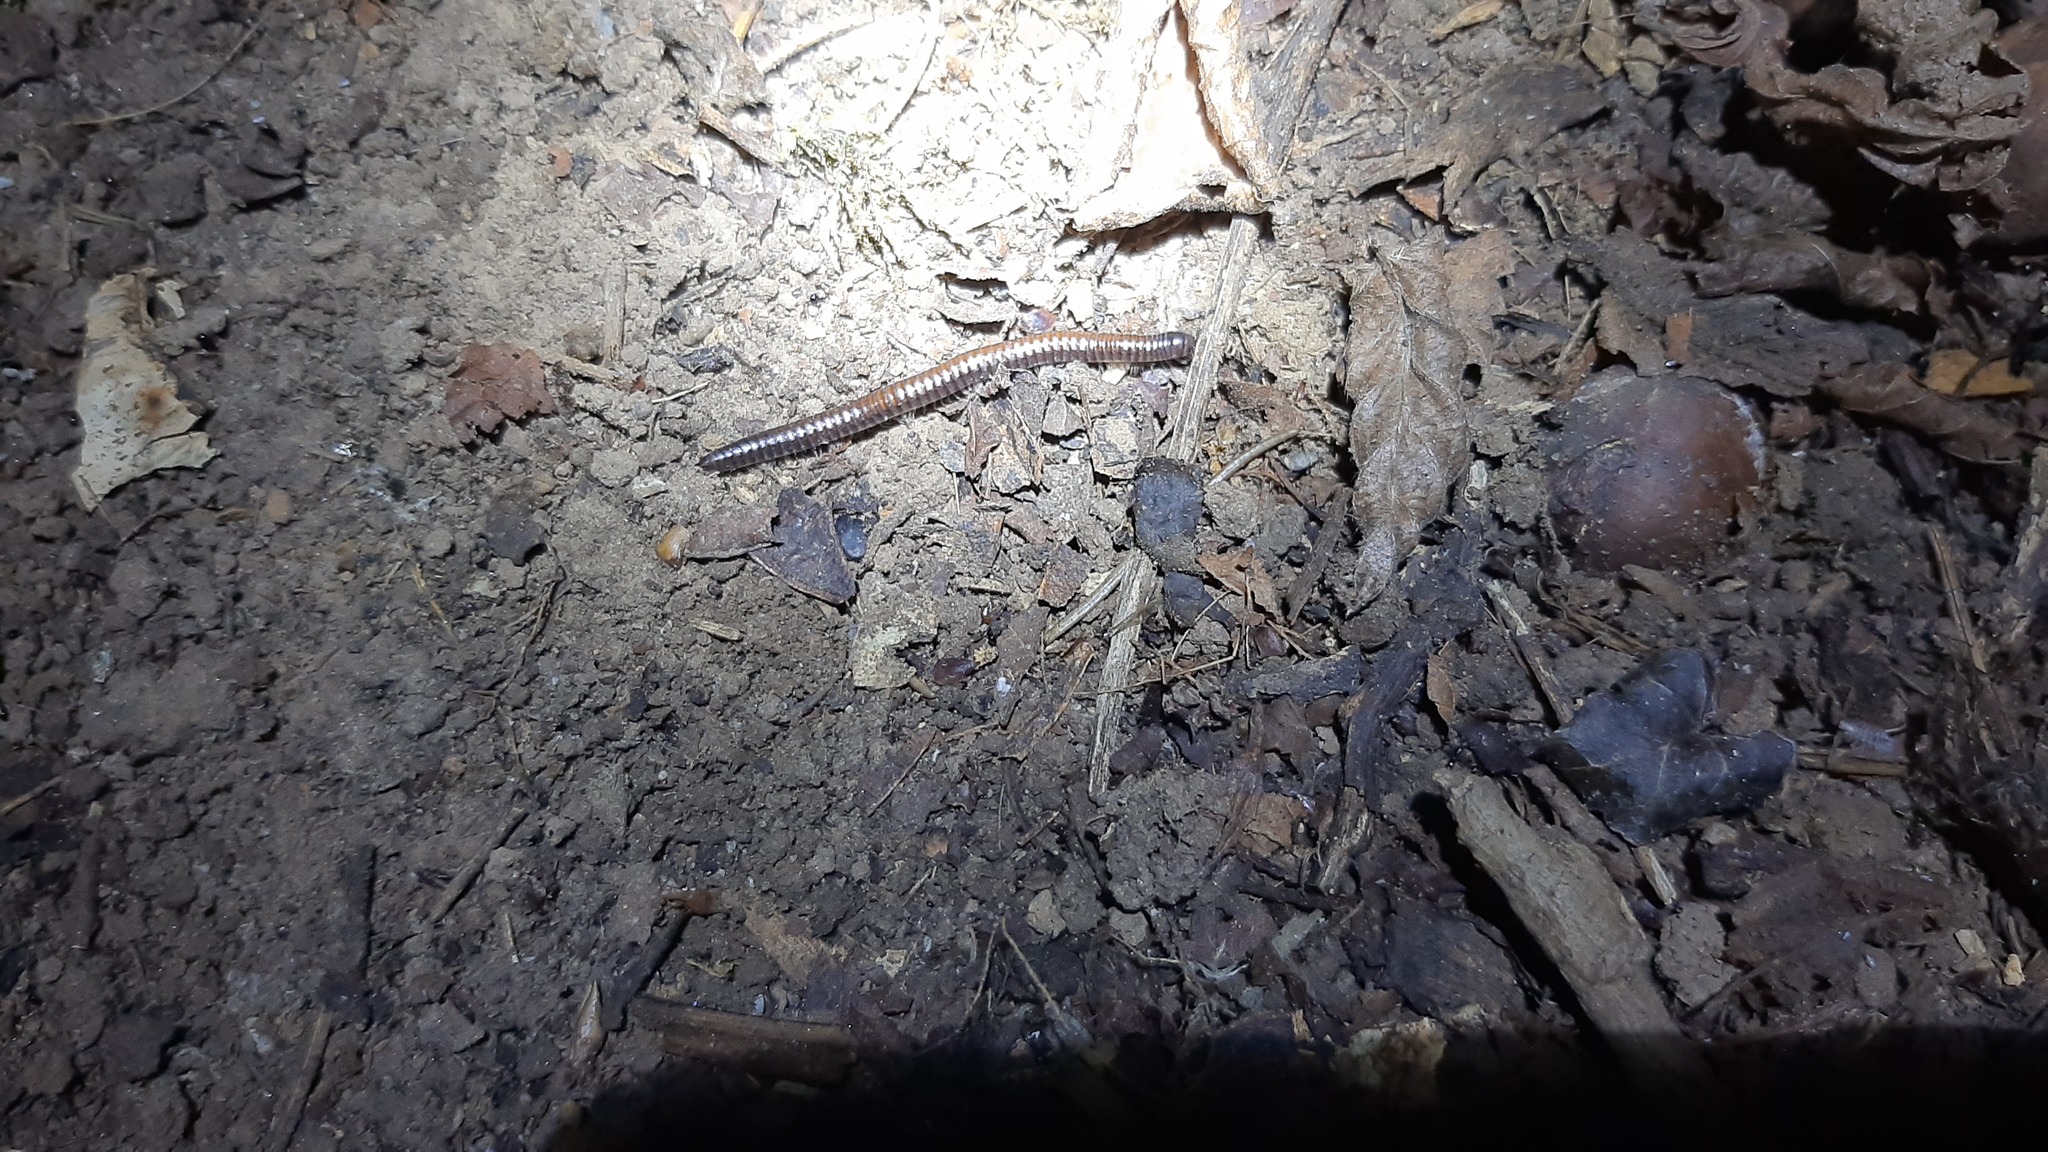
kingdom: Animalia
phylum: Arthropoda
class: Diplopoda
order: Julida
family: Julidae
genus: Ophyiulus
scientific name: Ophyiulus rubrodorsalis
